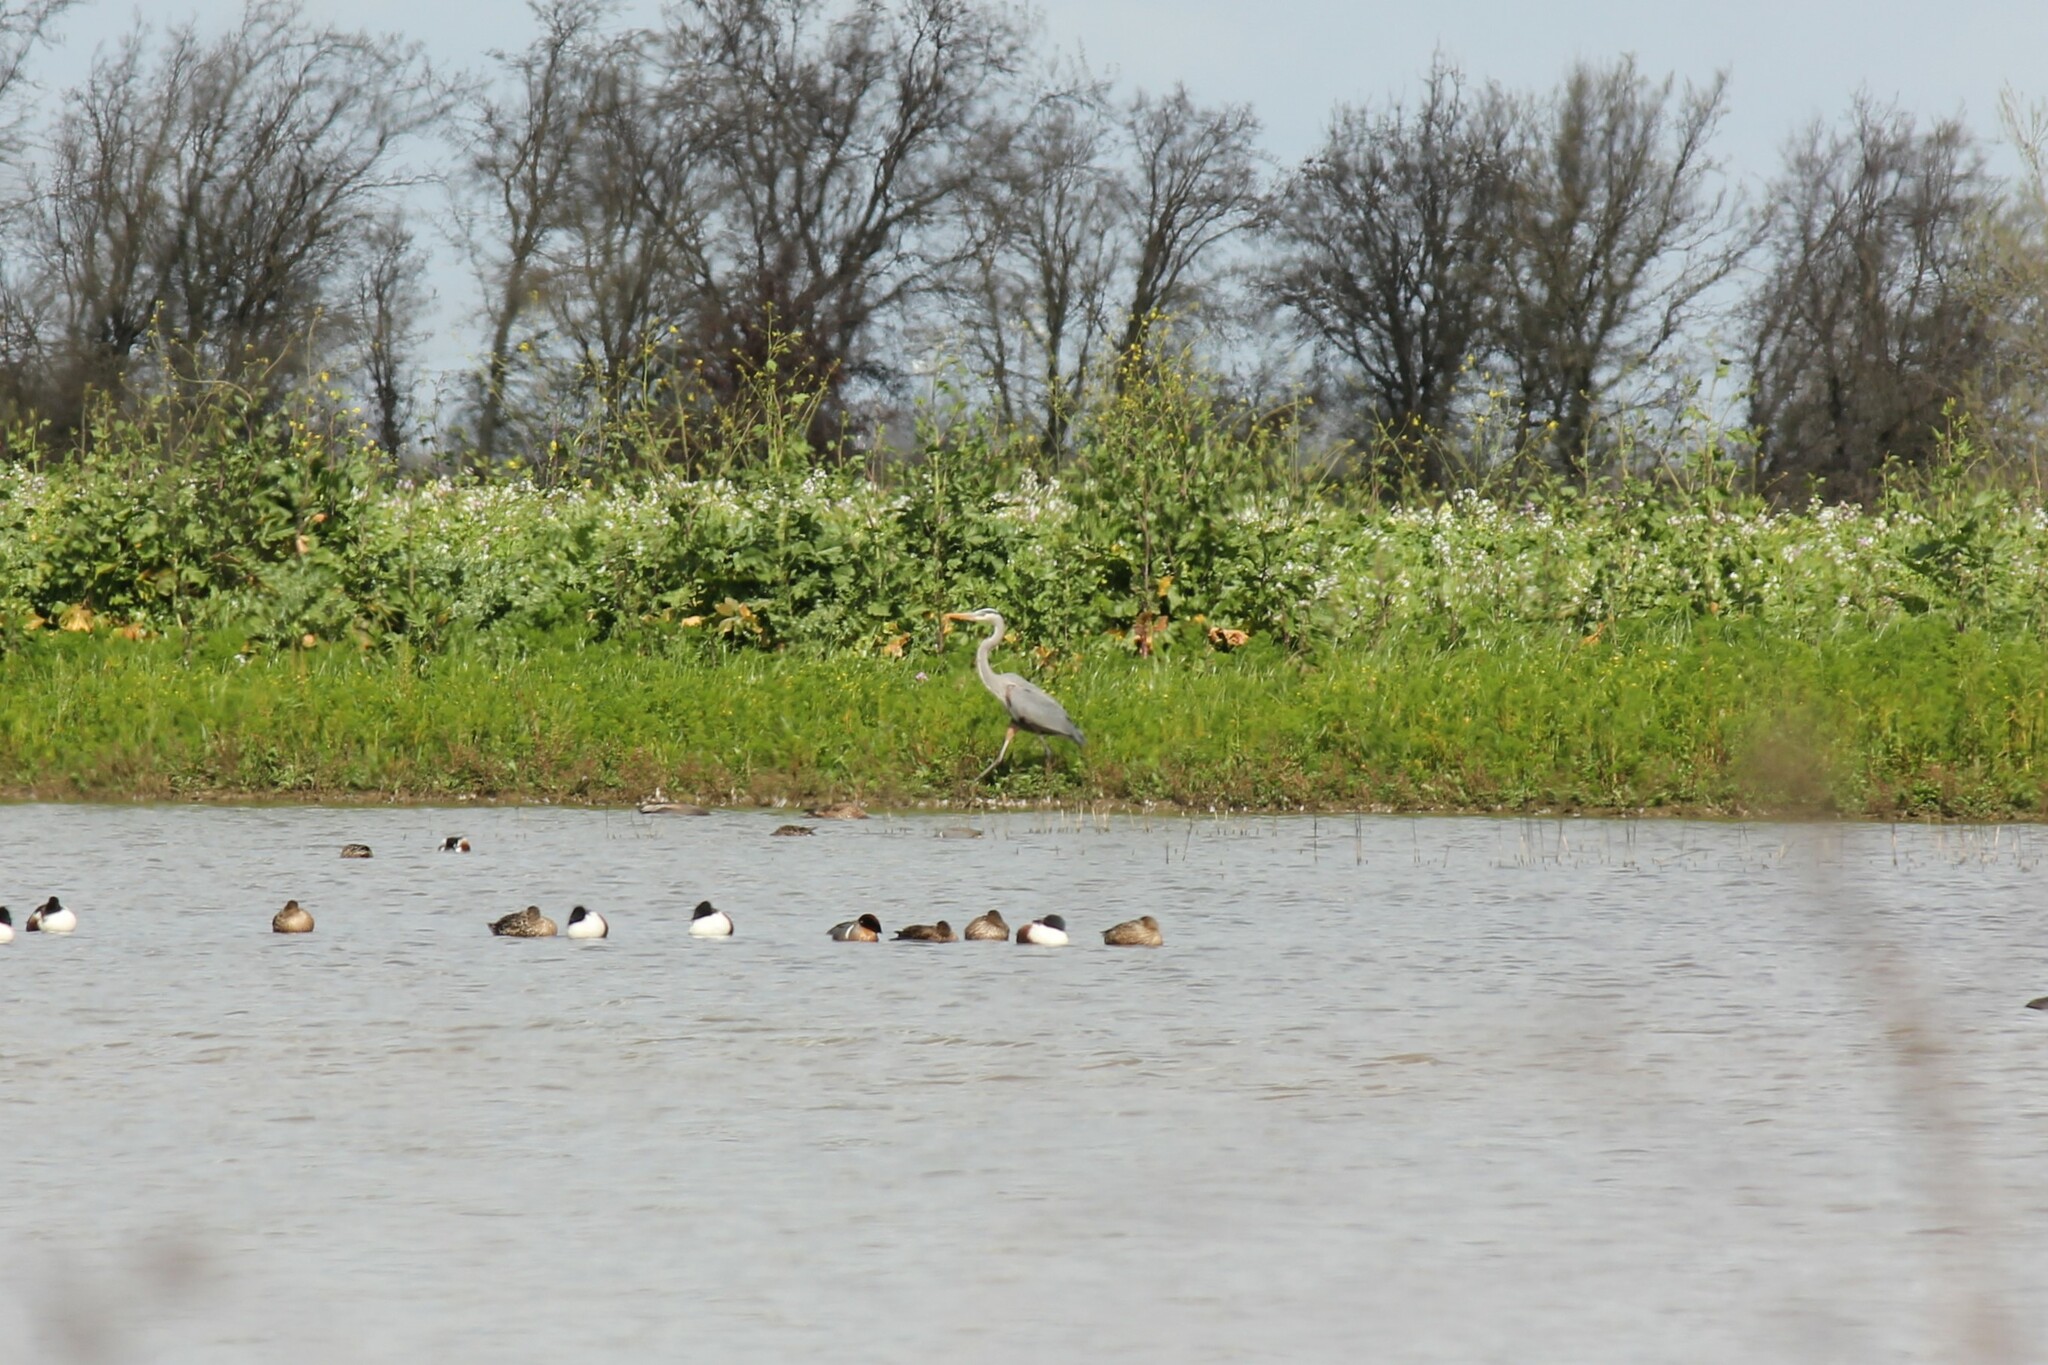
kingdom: Animalia
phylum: Chordata
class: Aves
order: Pelecaniformes
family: Ardeidae
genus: Ardea
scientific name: Ardea herodias
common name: Great blue heron
